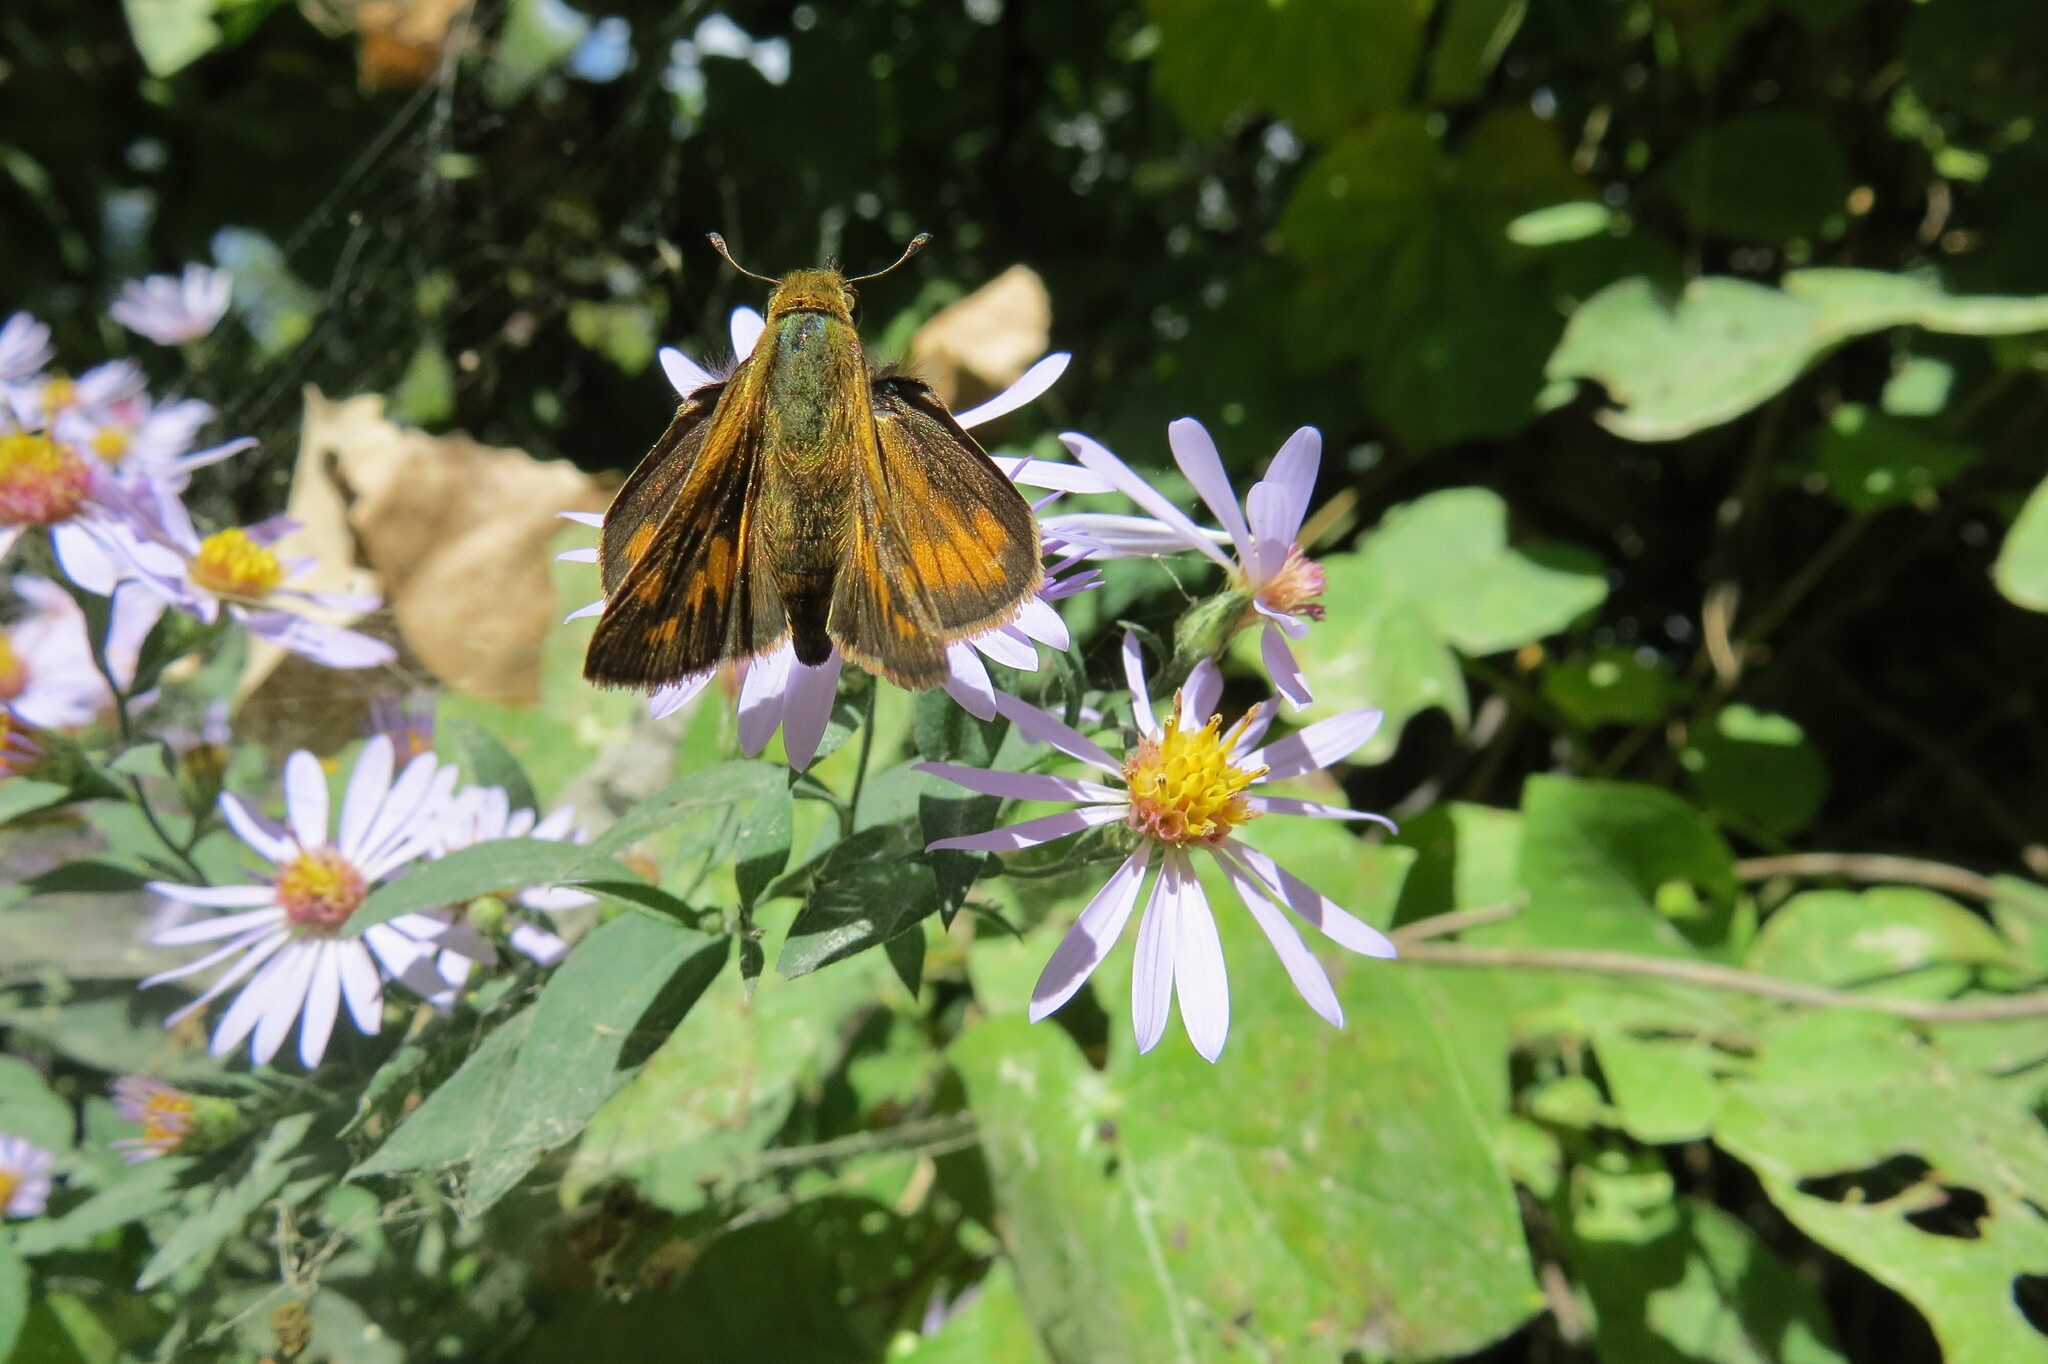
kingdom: Animalia
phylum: Arthropoda
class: Insecta
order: Lepidoptera
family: Hesperiidae
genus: Hylephila
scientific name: Hylephila phyleus
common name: Fiery skipper
